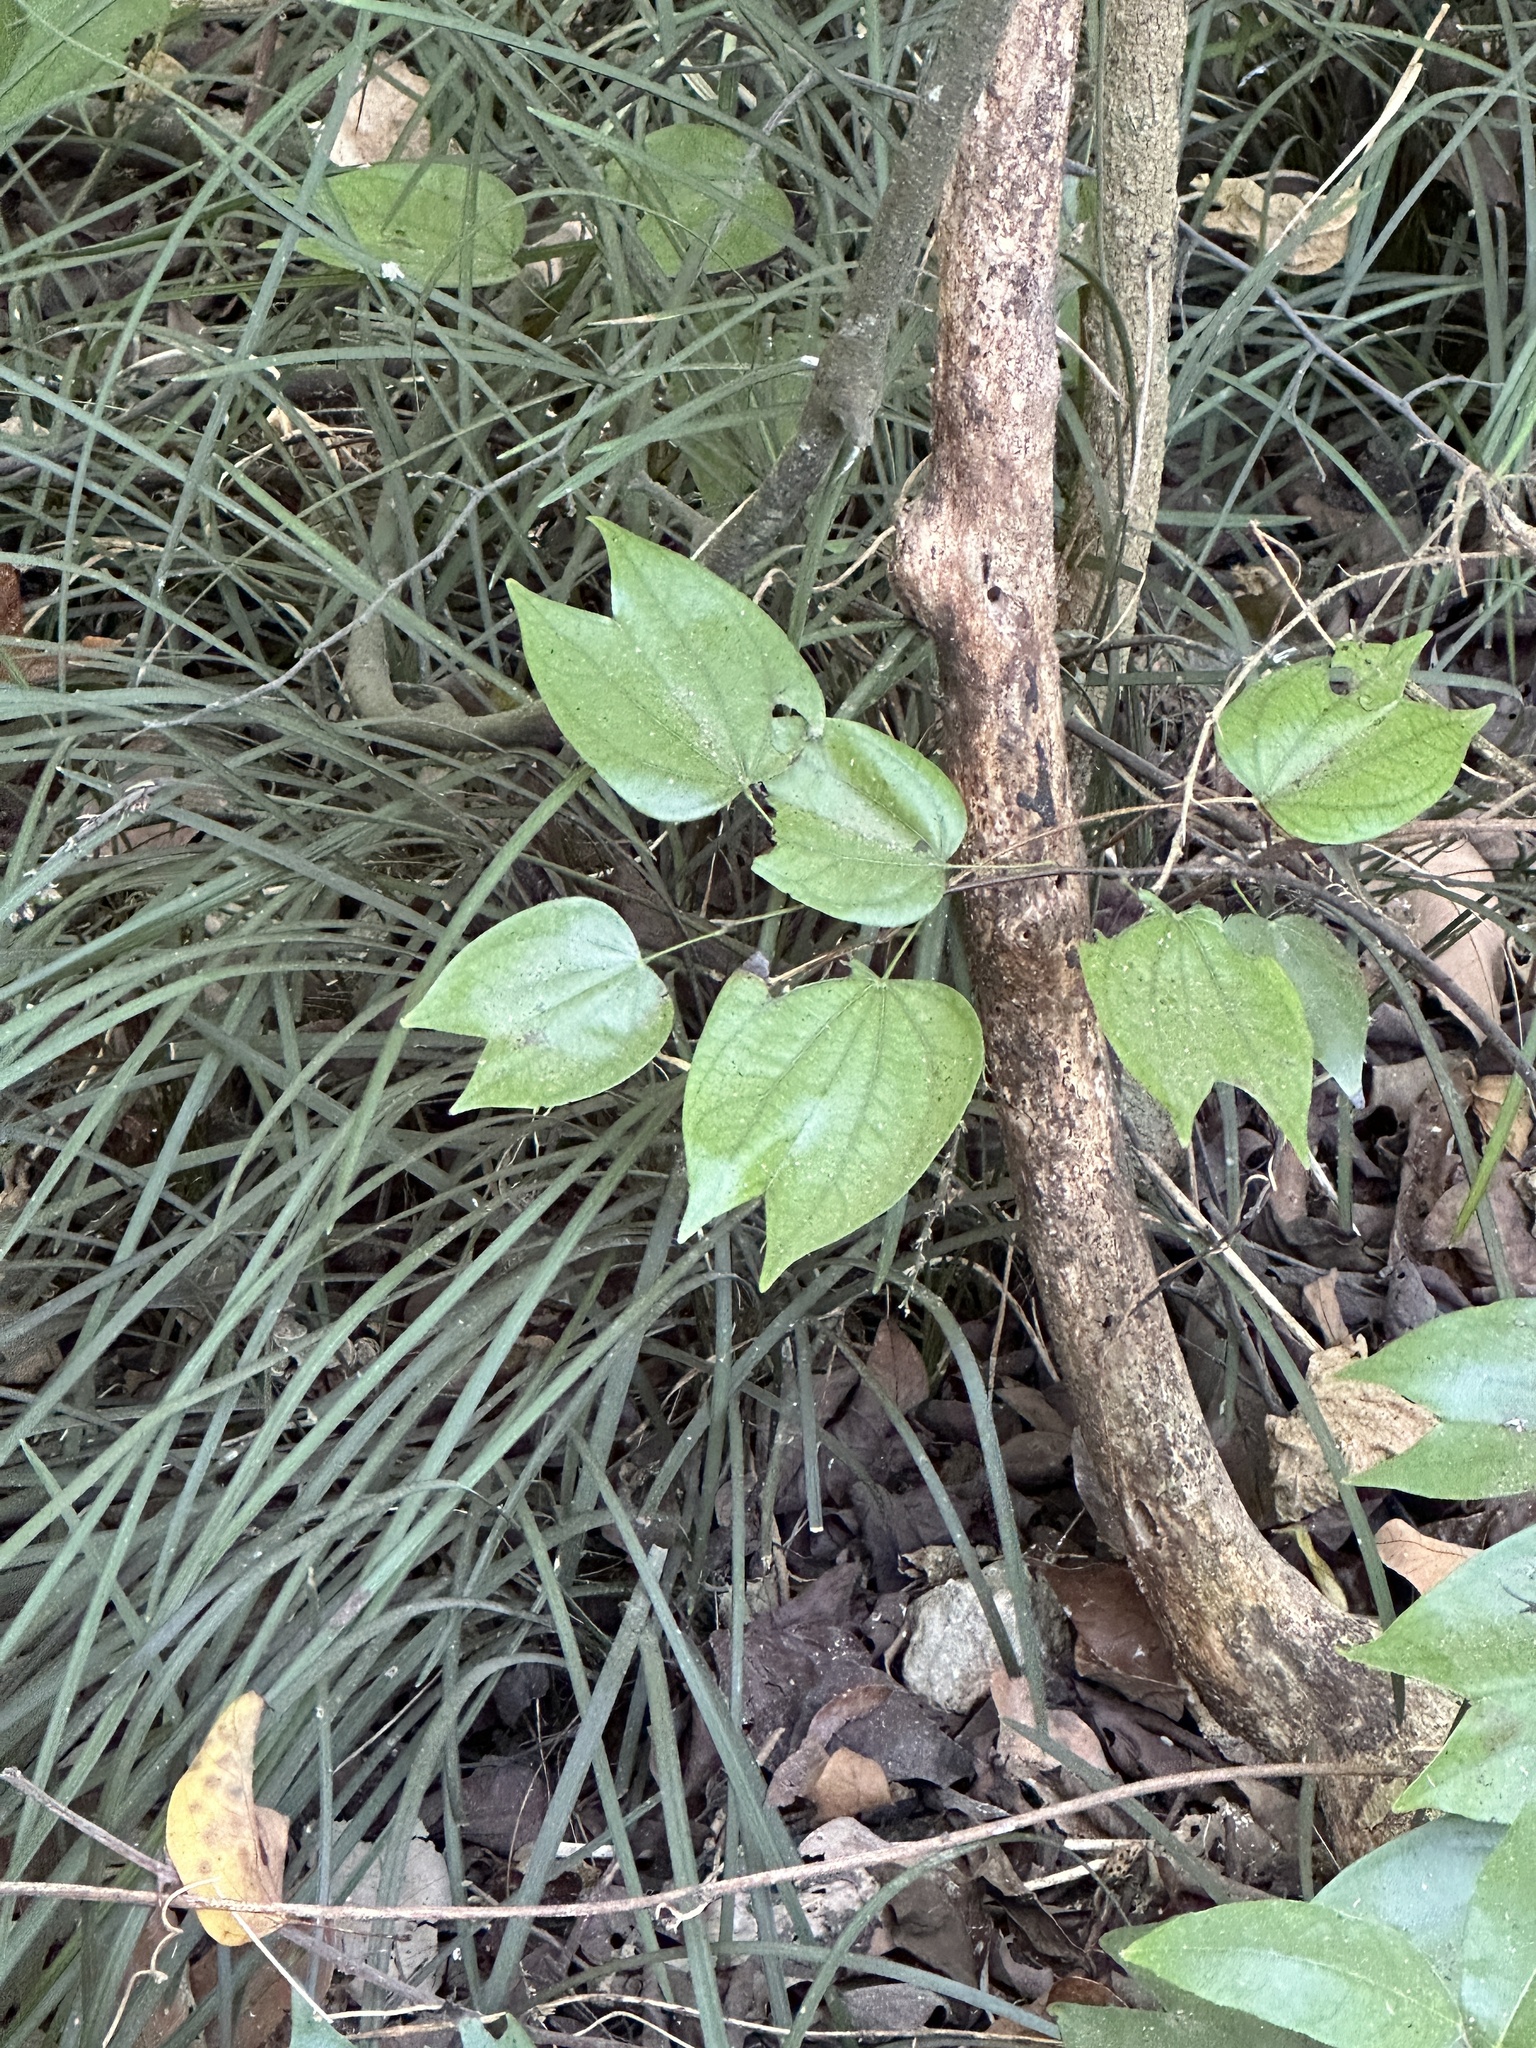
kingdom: Plantae
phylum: Tracheophyta
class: Magnoliopsida
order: Fabales
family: Fabaceae
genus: Phanera
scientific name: Phanera championii
